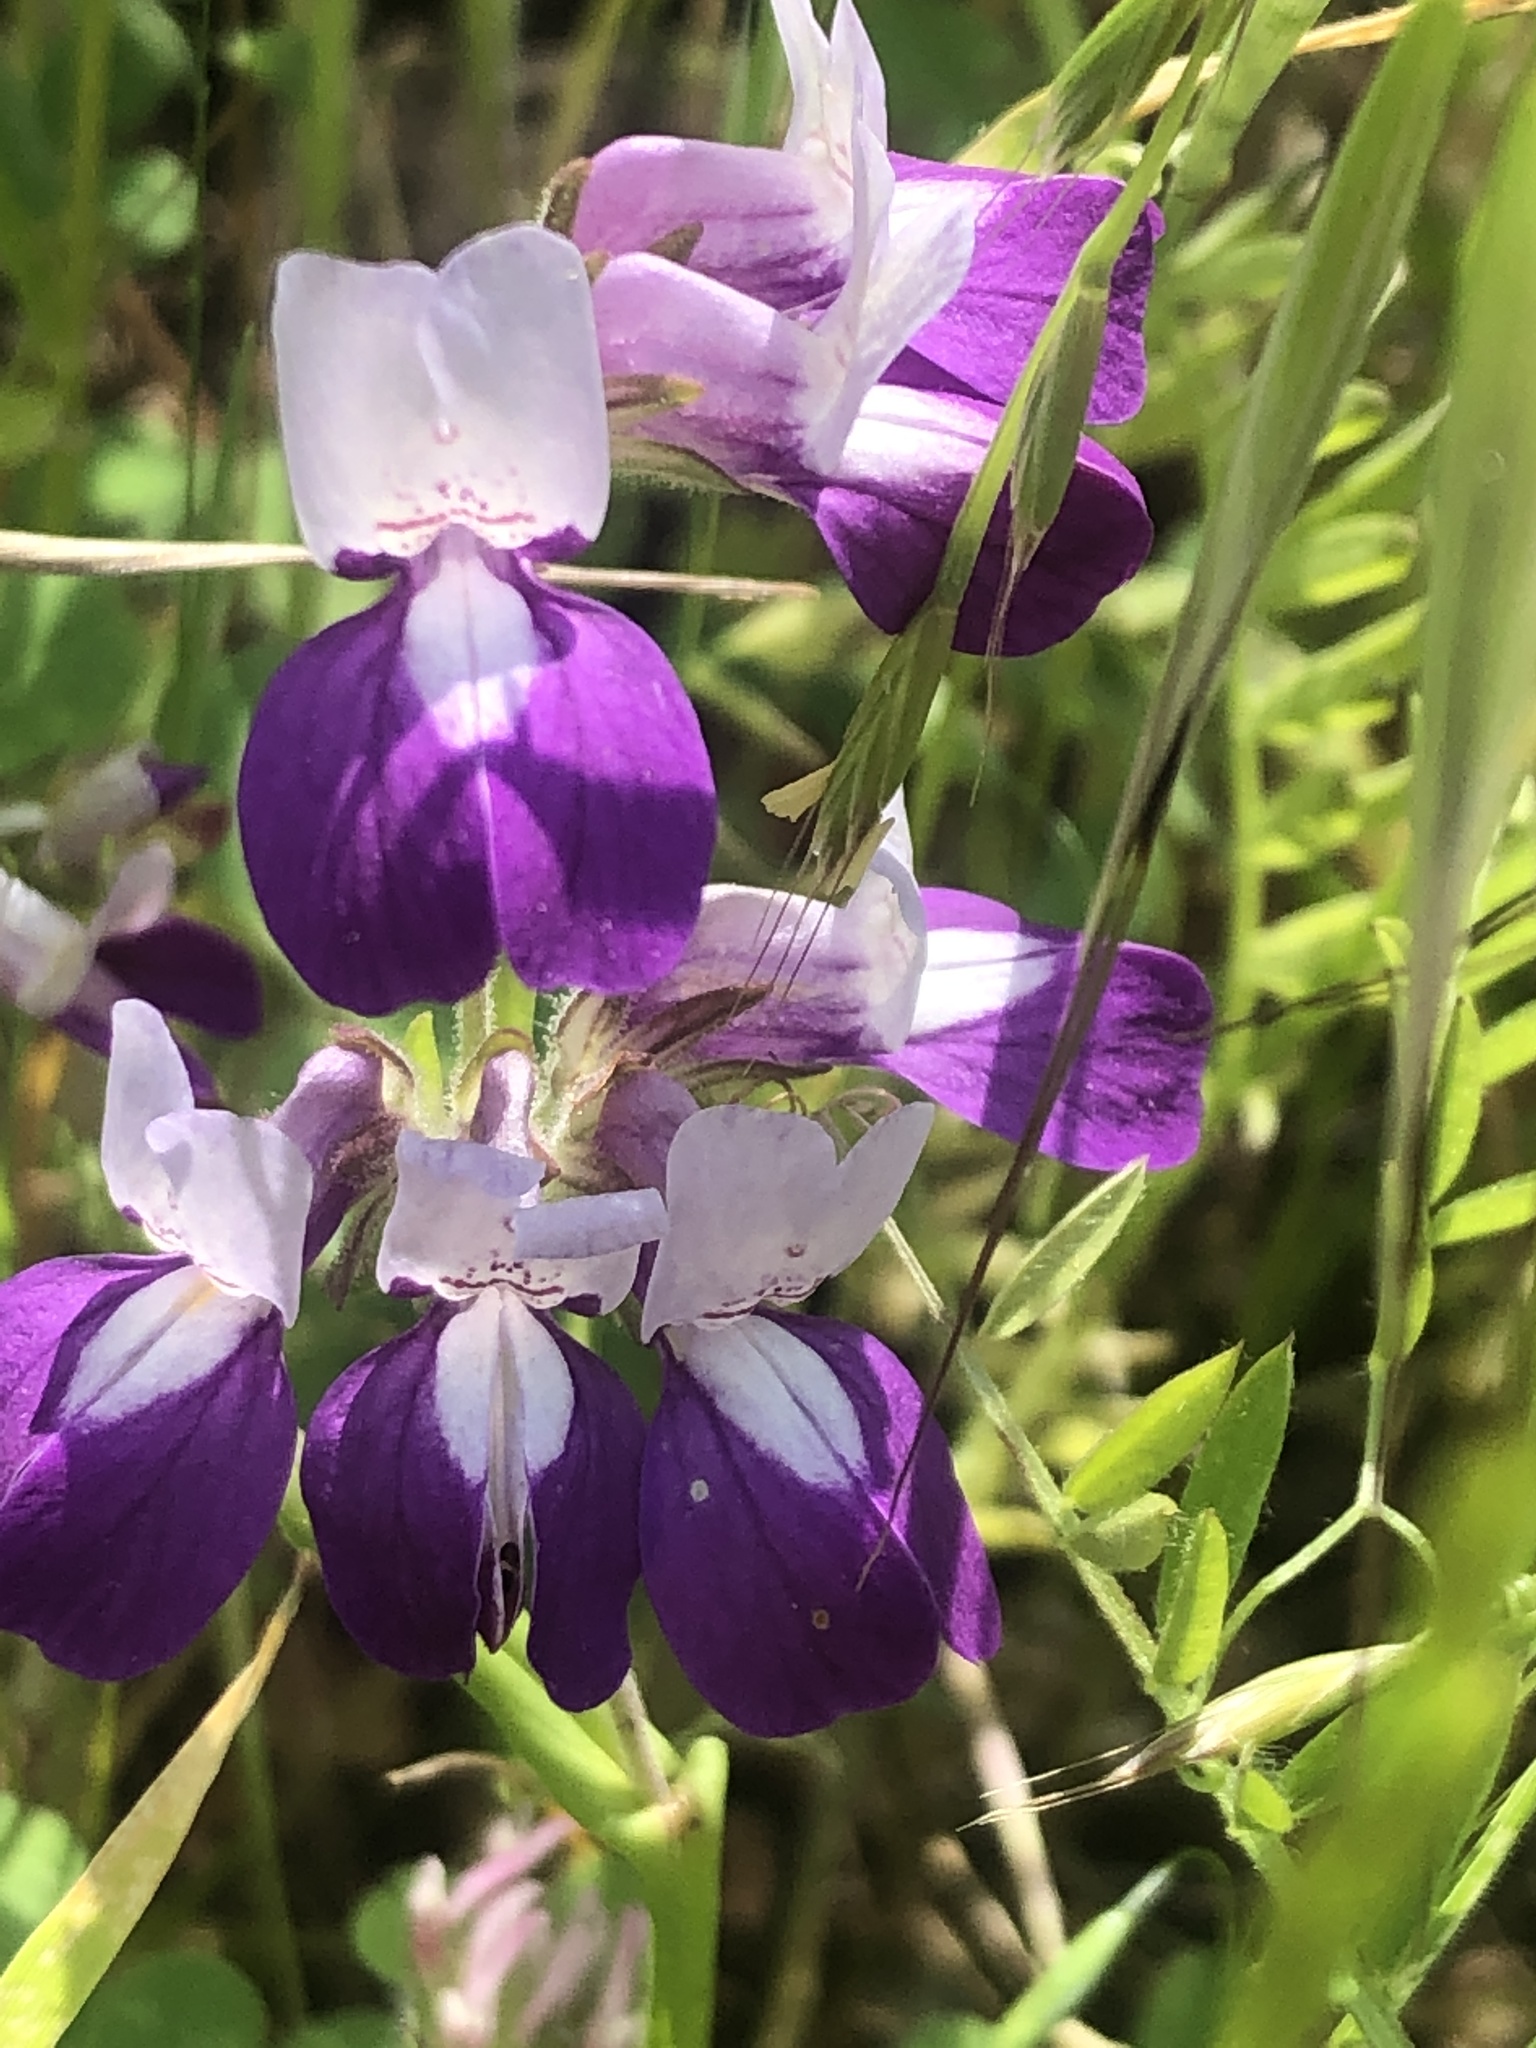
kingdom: Plantae
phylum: Tracheophyta
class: Magnoliopsida
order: Lamiales
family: Plantaginaceae
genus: Collinsia
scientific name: Collinsia heterophylla
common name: Chinese-houses
